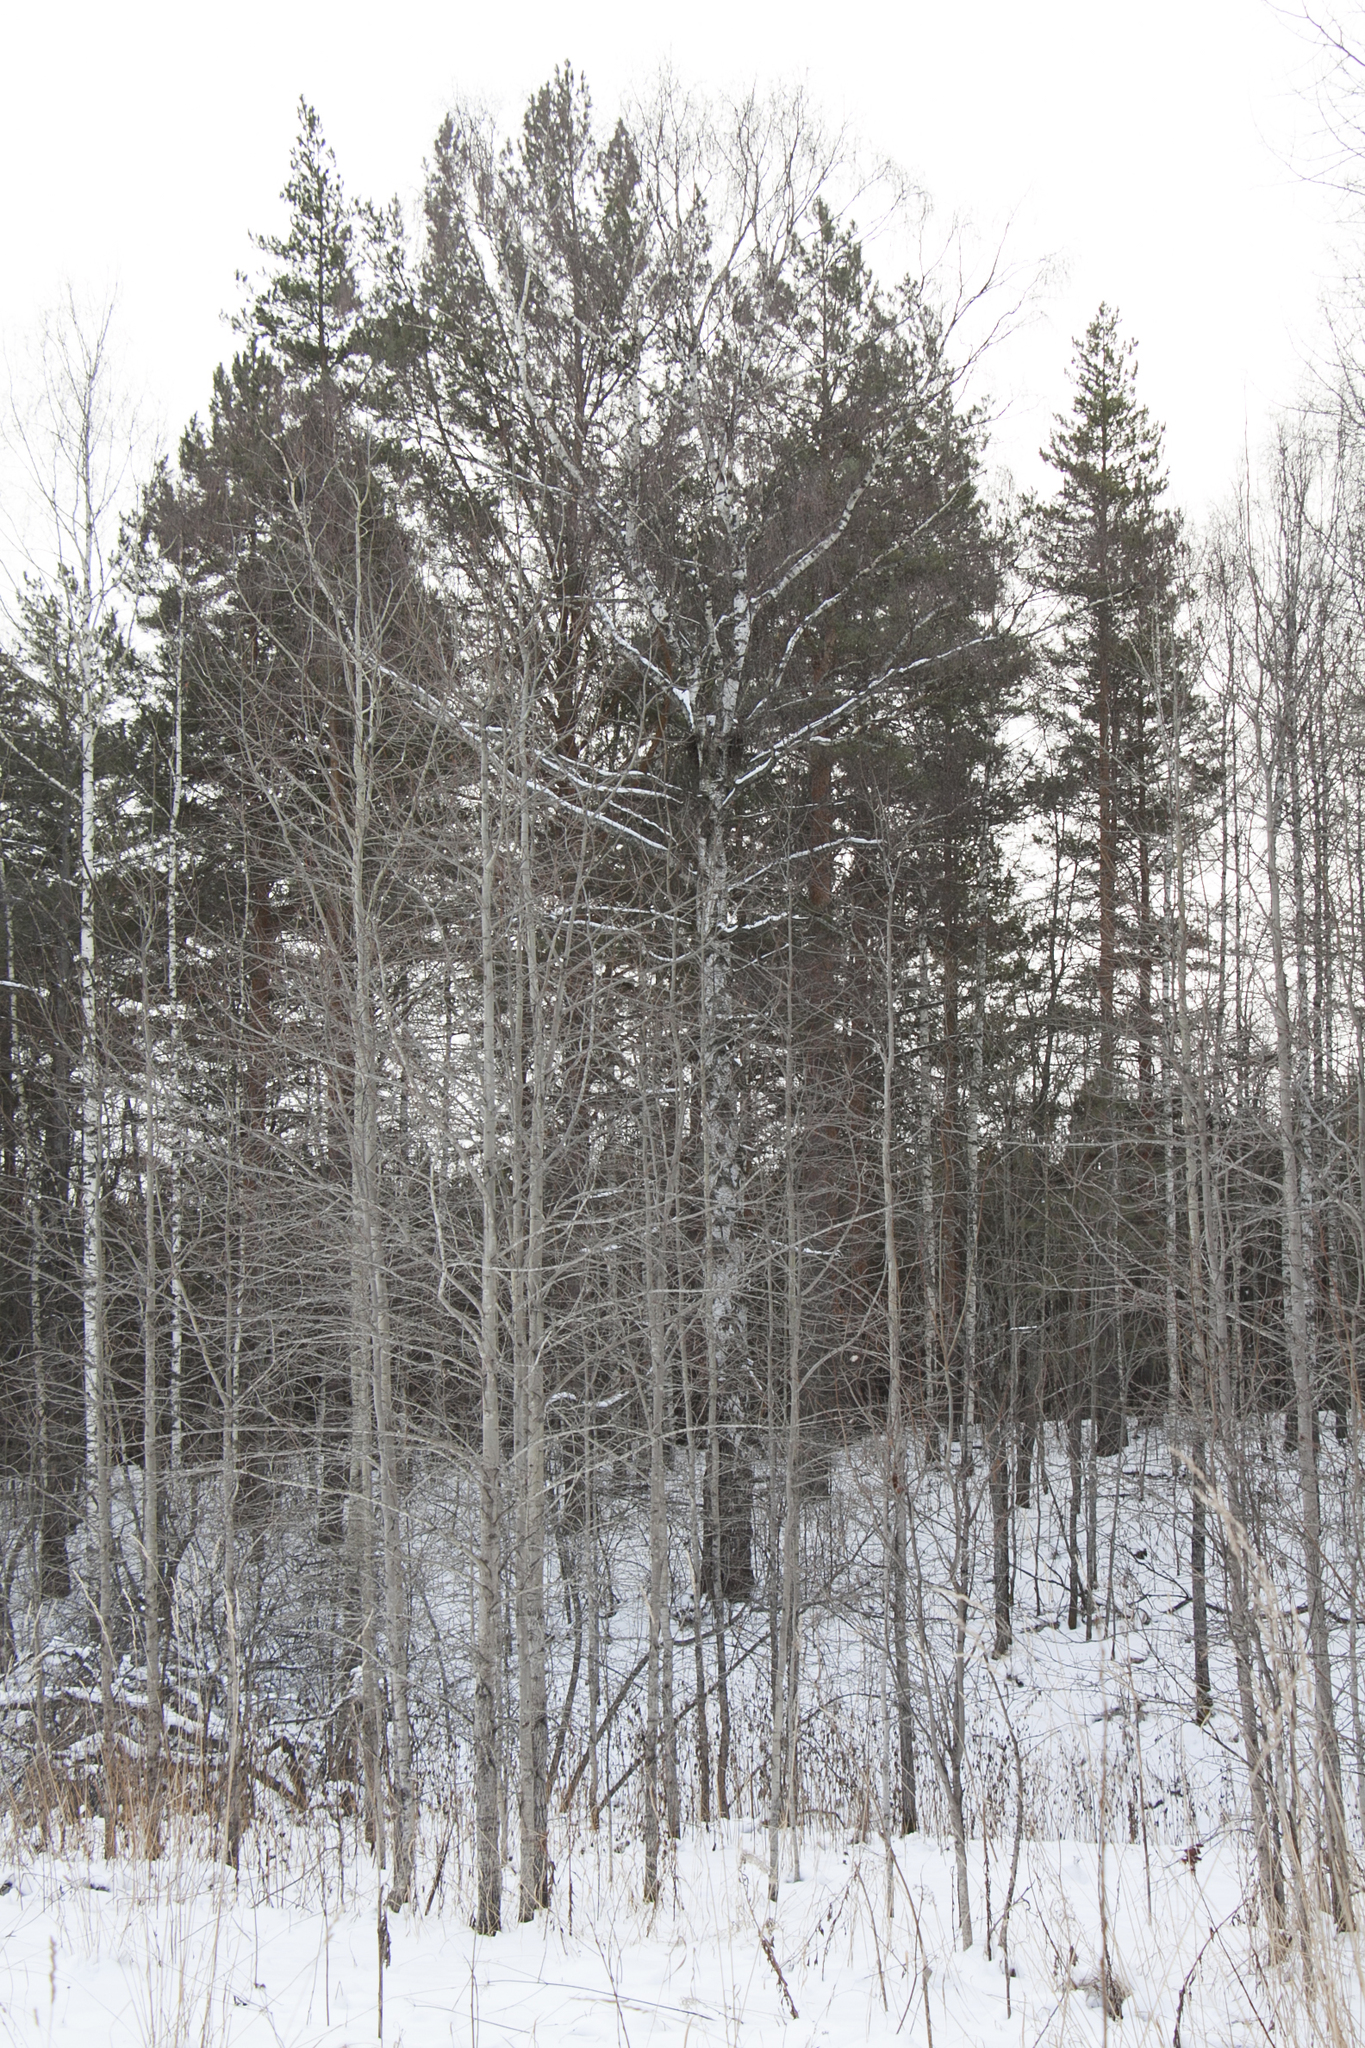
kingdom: Plantae
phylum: Tracheophyta
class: Magnoliopsida
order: Malpighiales
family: Salicaceae
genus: Populus
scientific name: Populus tremula
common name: European aspen
